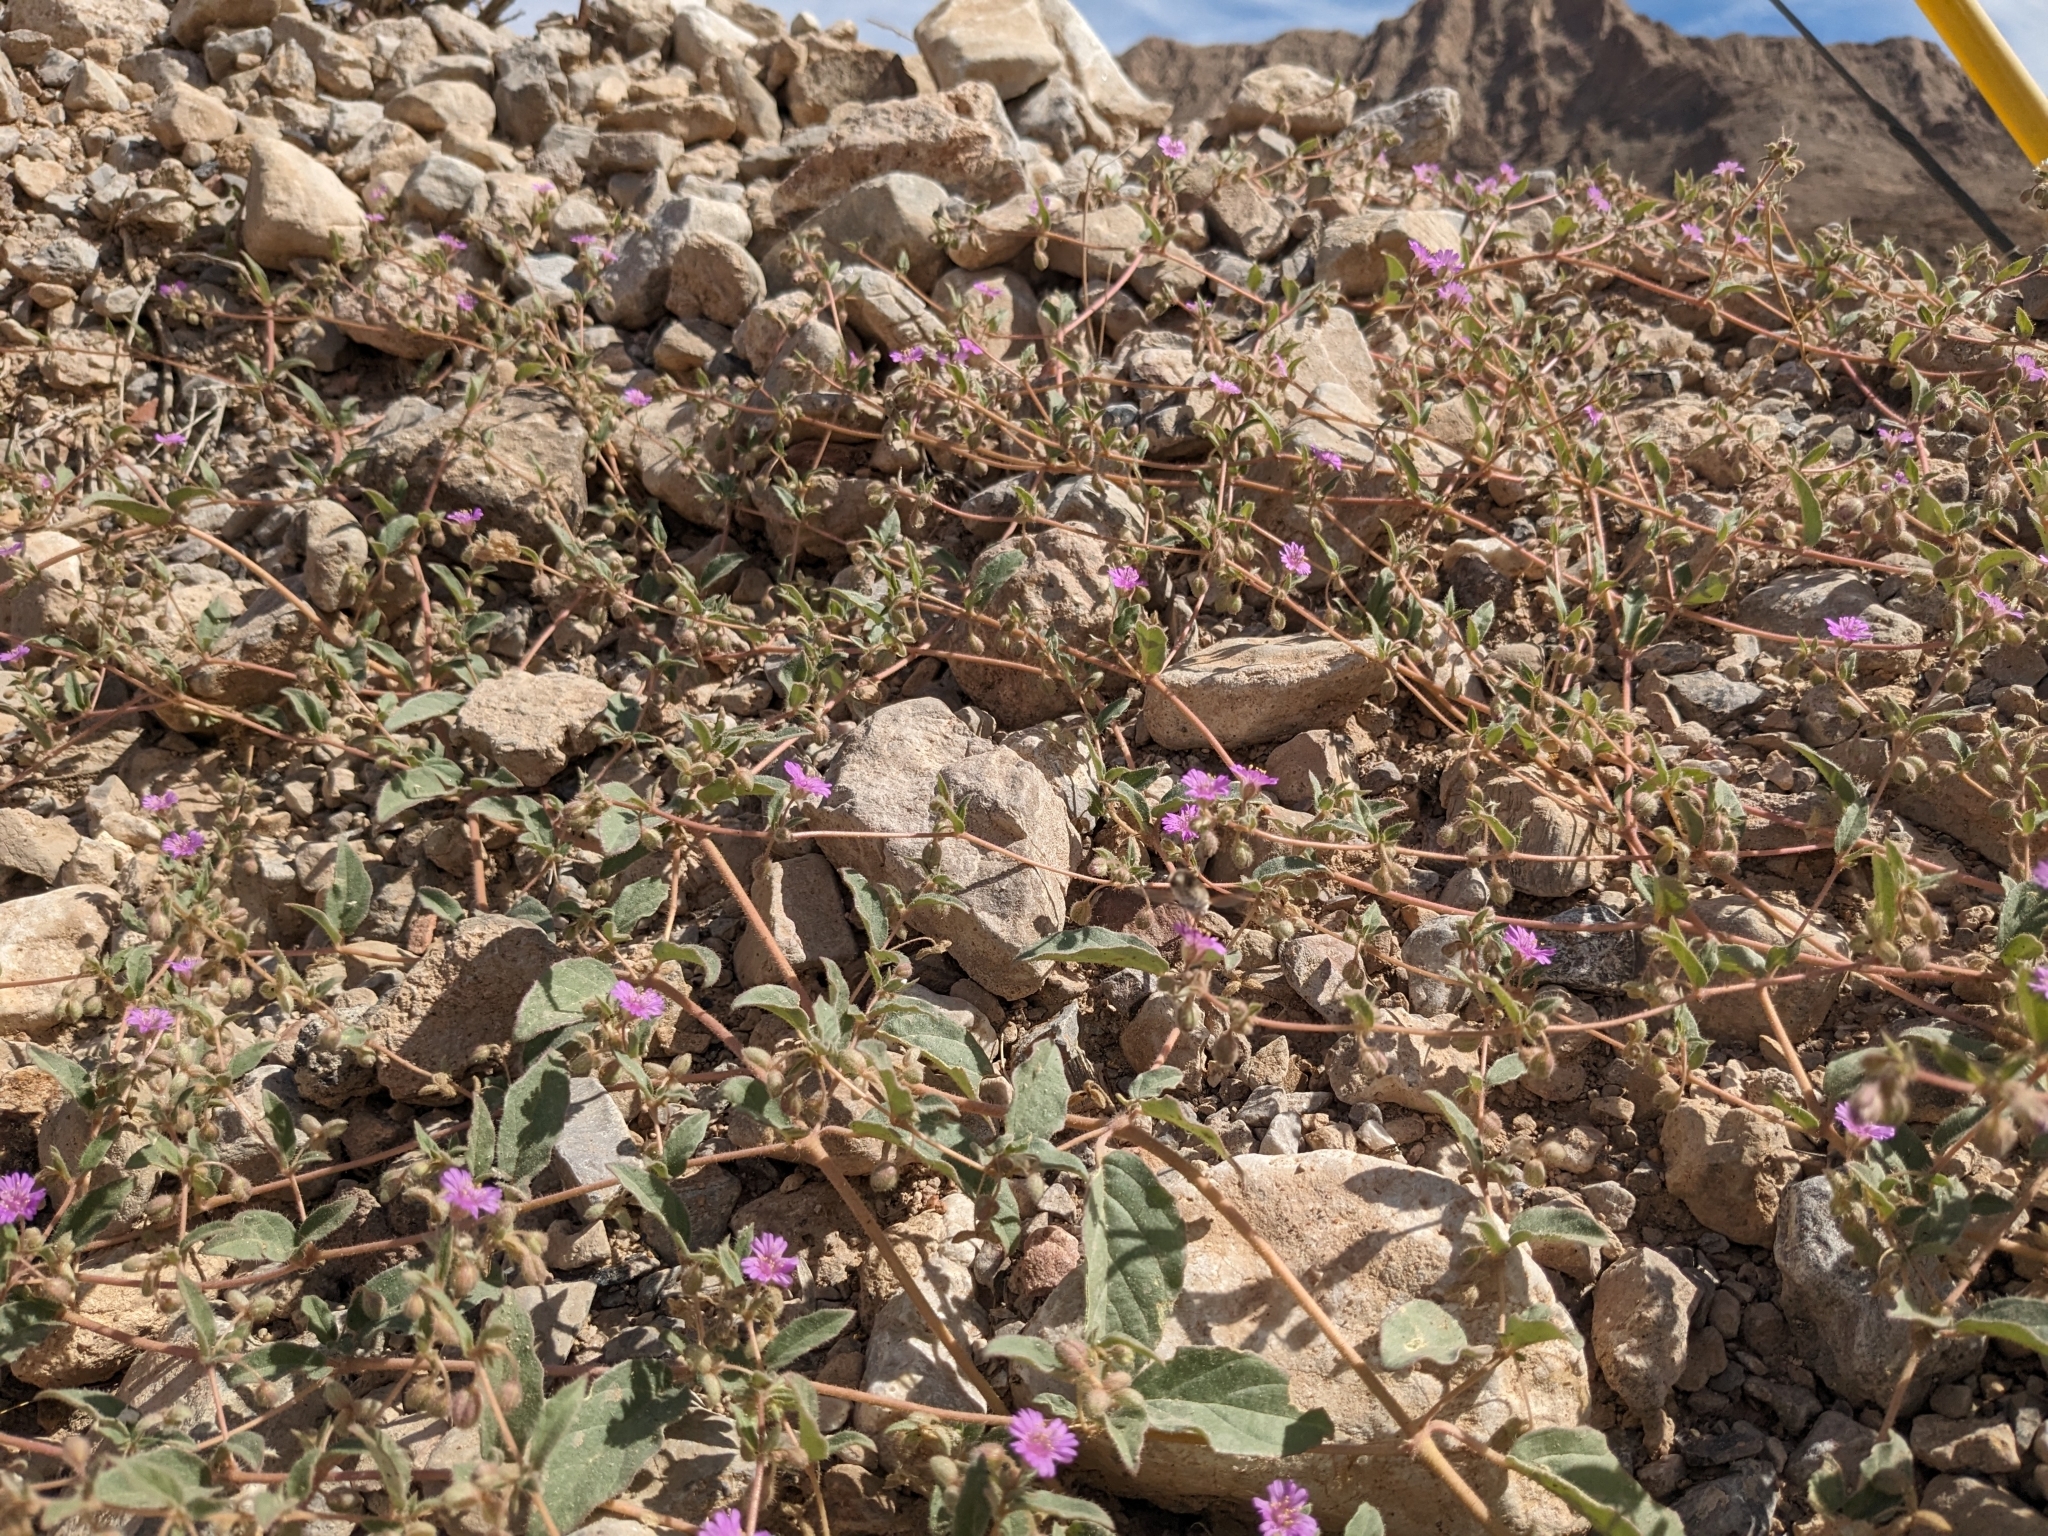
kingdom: Plantae
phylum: Tracheophyta
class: Magnoliopsida
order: Caryophyllales
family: Nyctaginaceae
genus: Allionia
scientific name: Allionia incarnata
